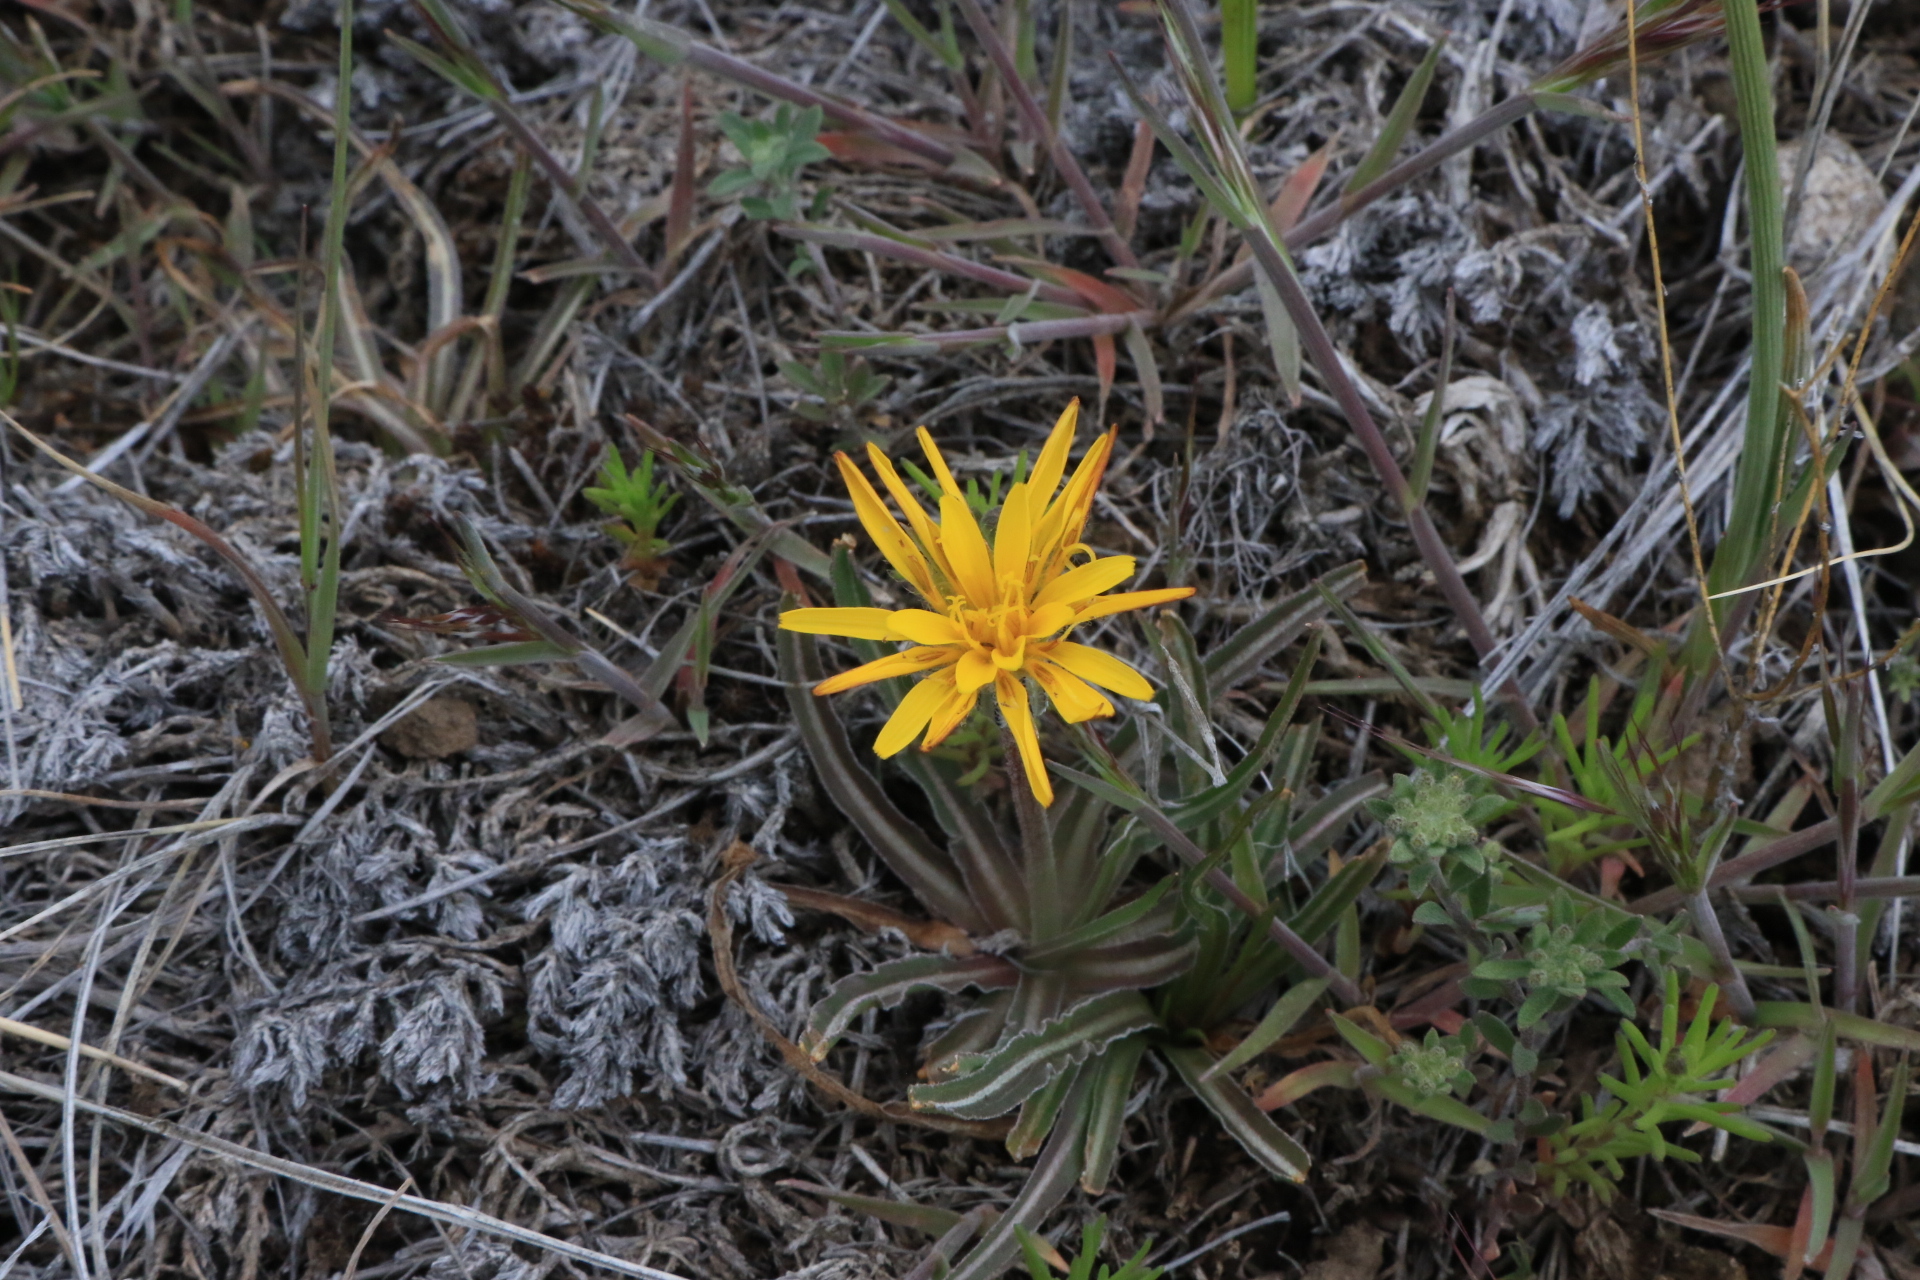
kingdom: Plantae
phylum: Tracheophyta
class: Magnoliopsida
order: Asterales
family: Asteraceae
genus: Microseris
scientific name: Microseris troximoides
